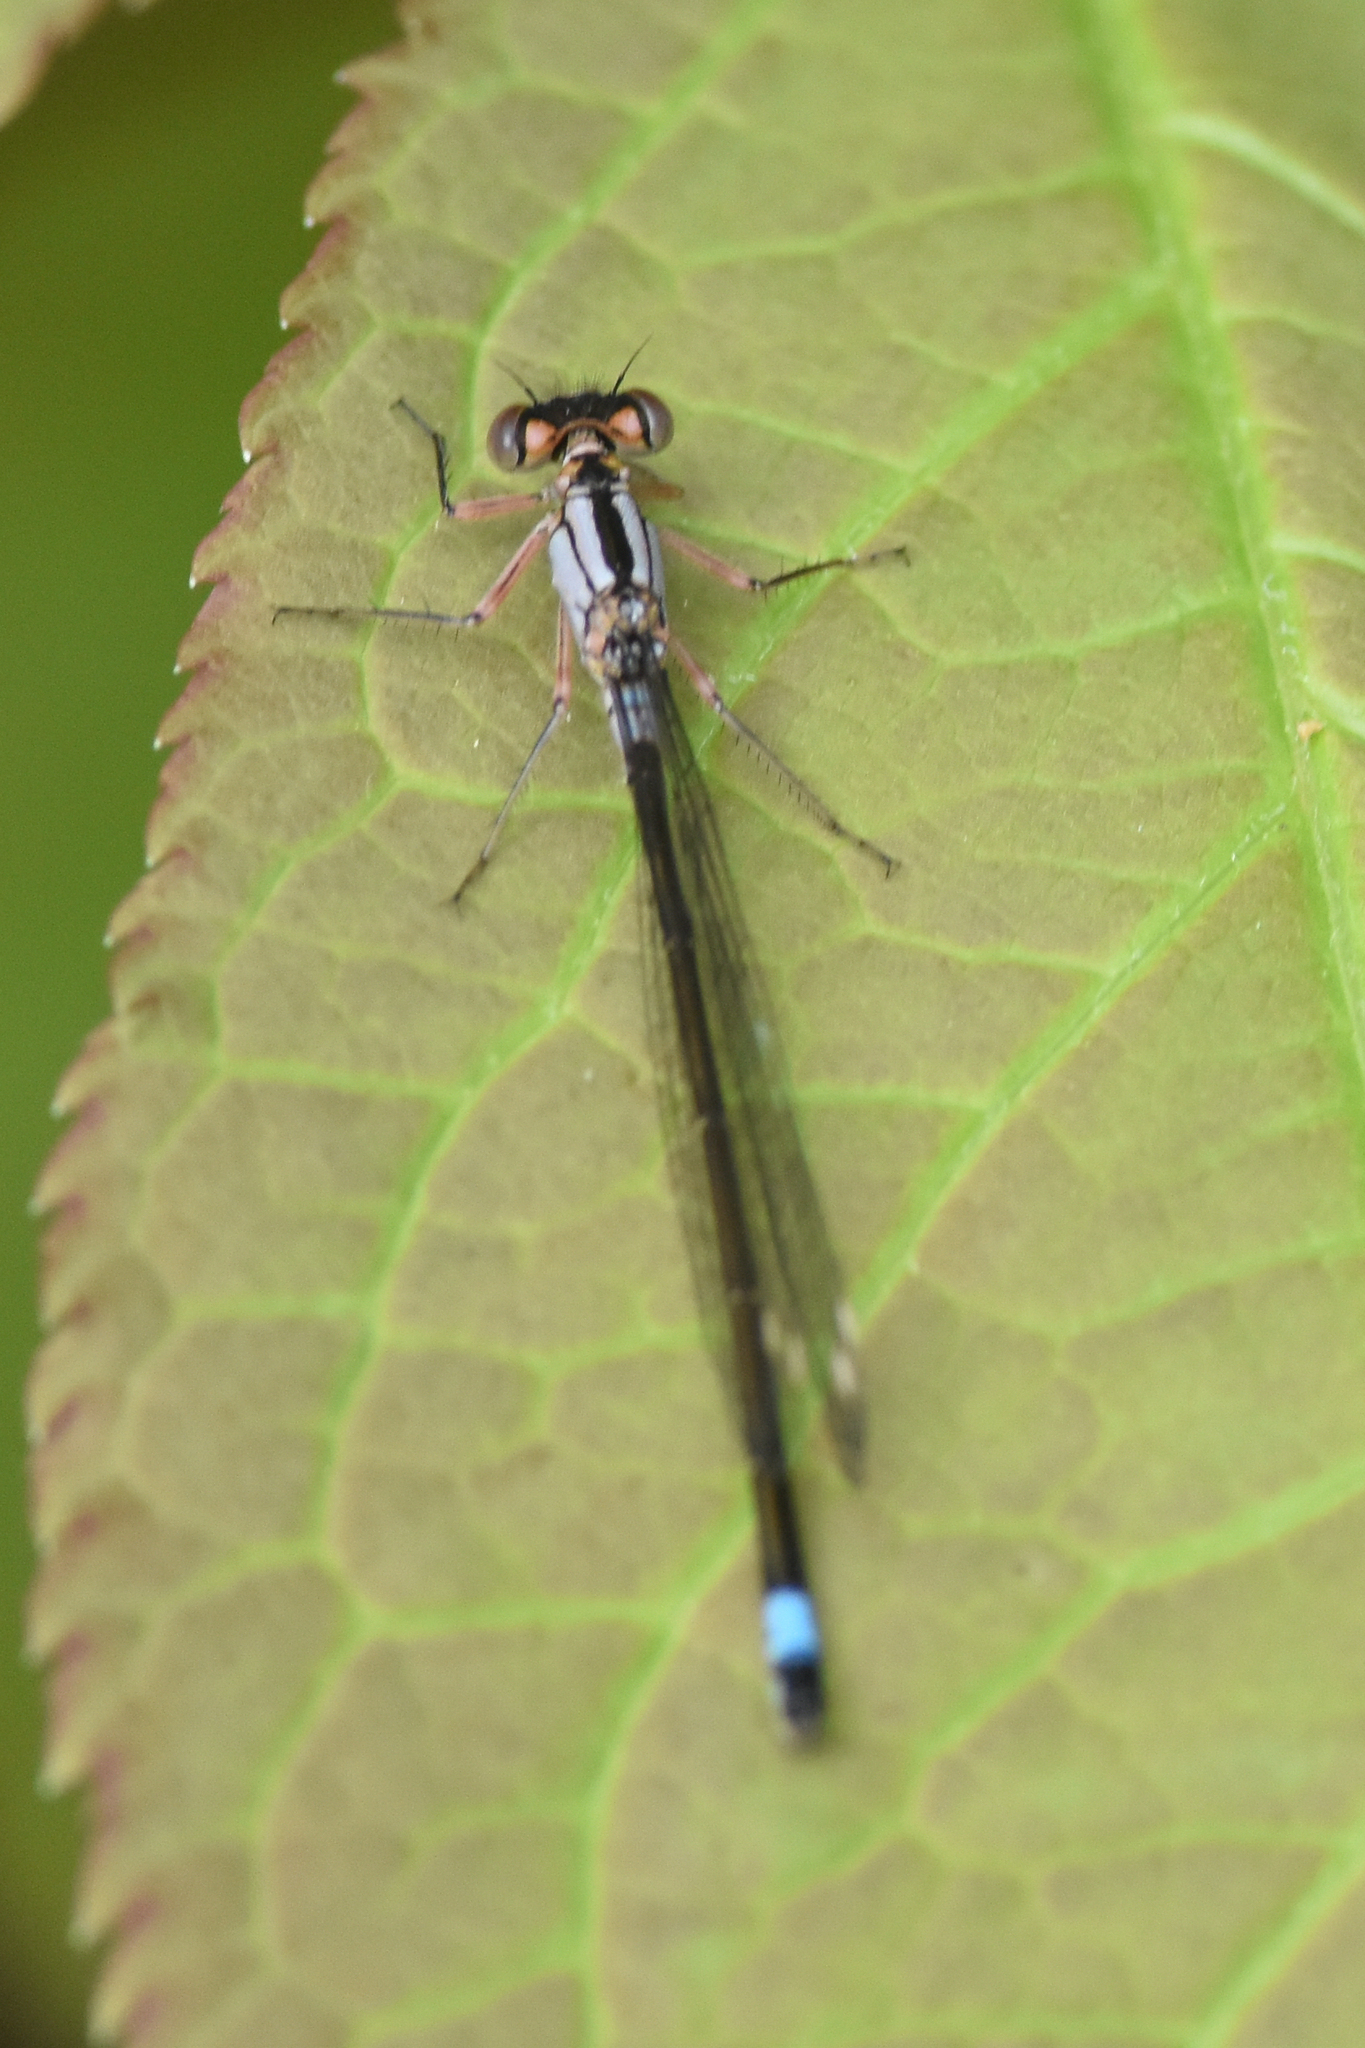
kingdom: Animalia
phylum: Arthropoda
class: Insecta
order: Odonata
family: Coenagrionidae
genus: Ischnura
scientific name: Ischnura cervula
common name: Pacific forktail
